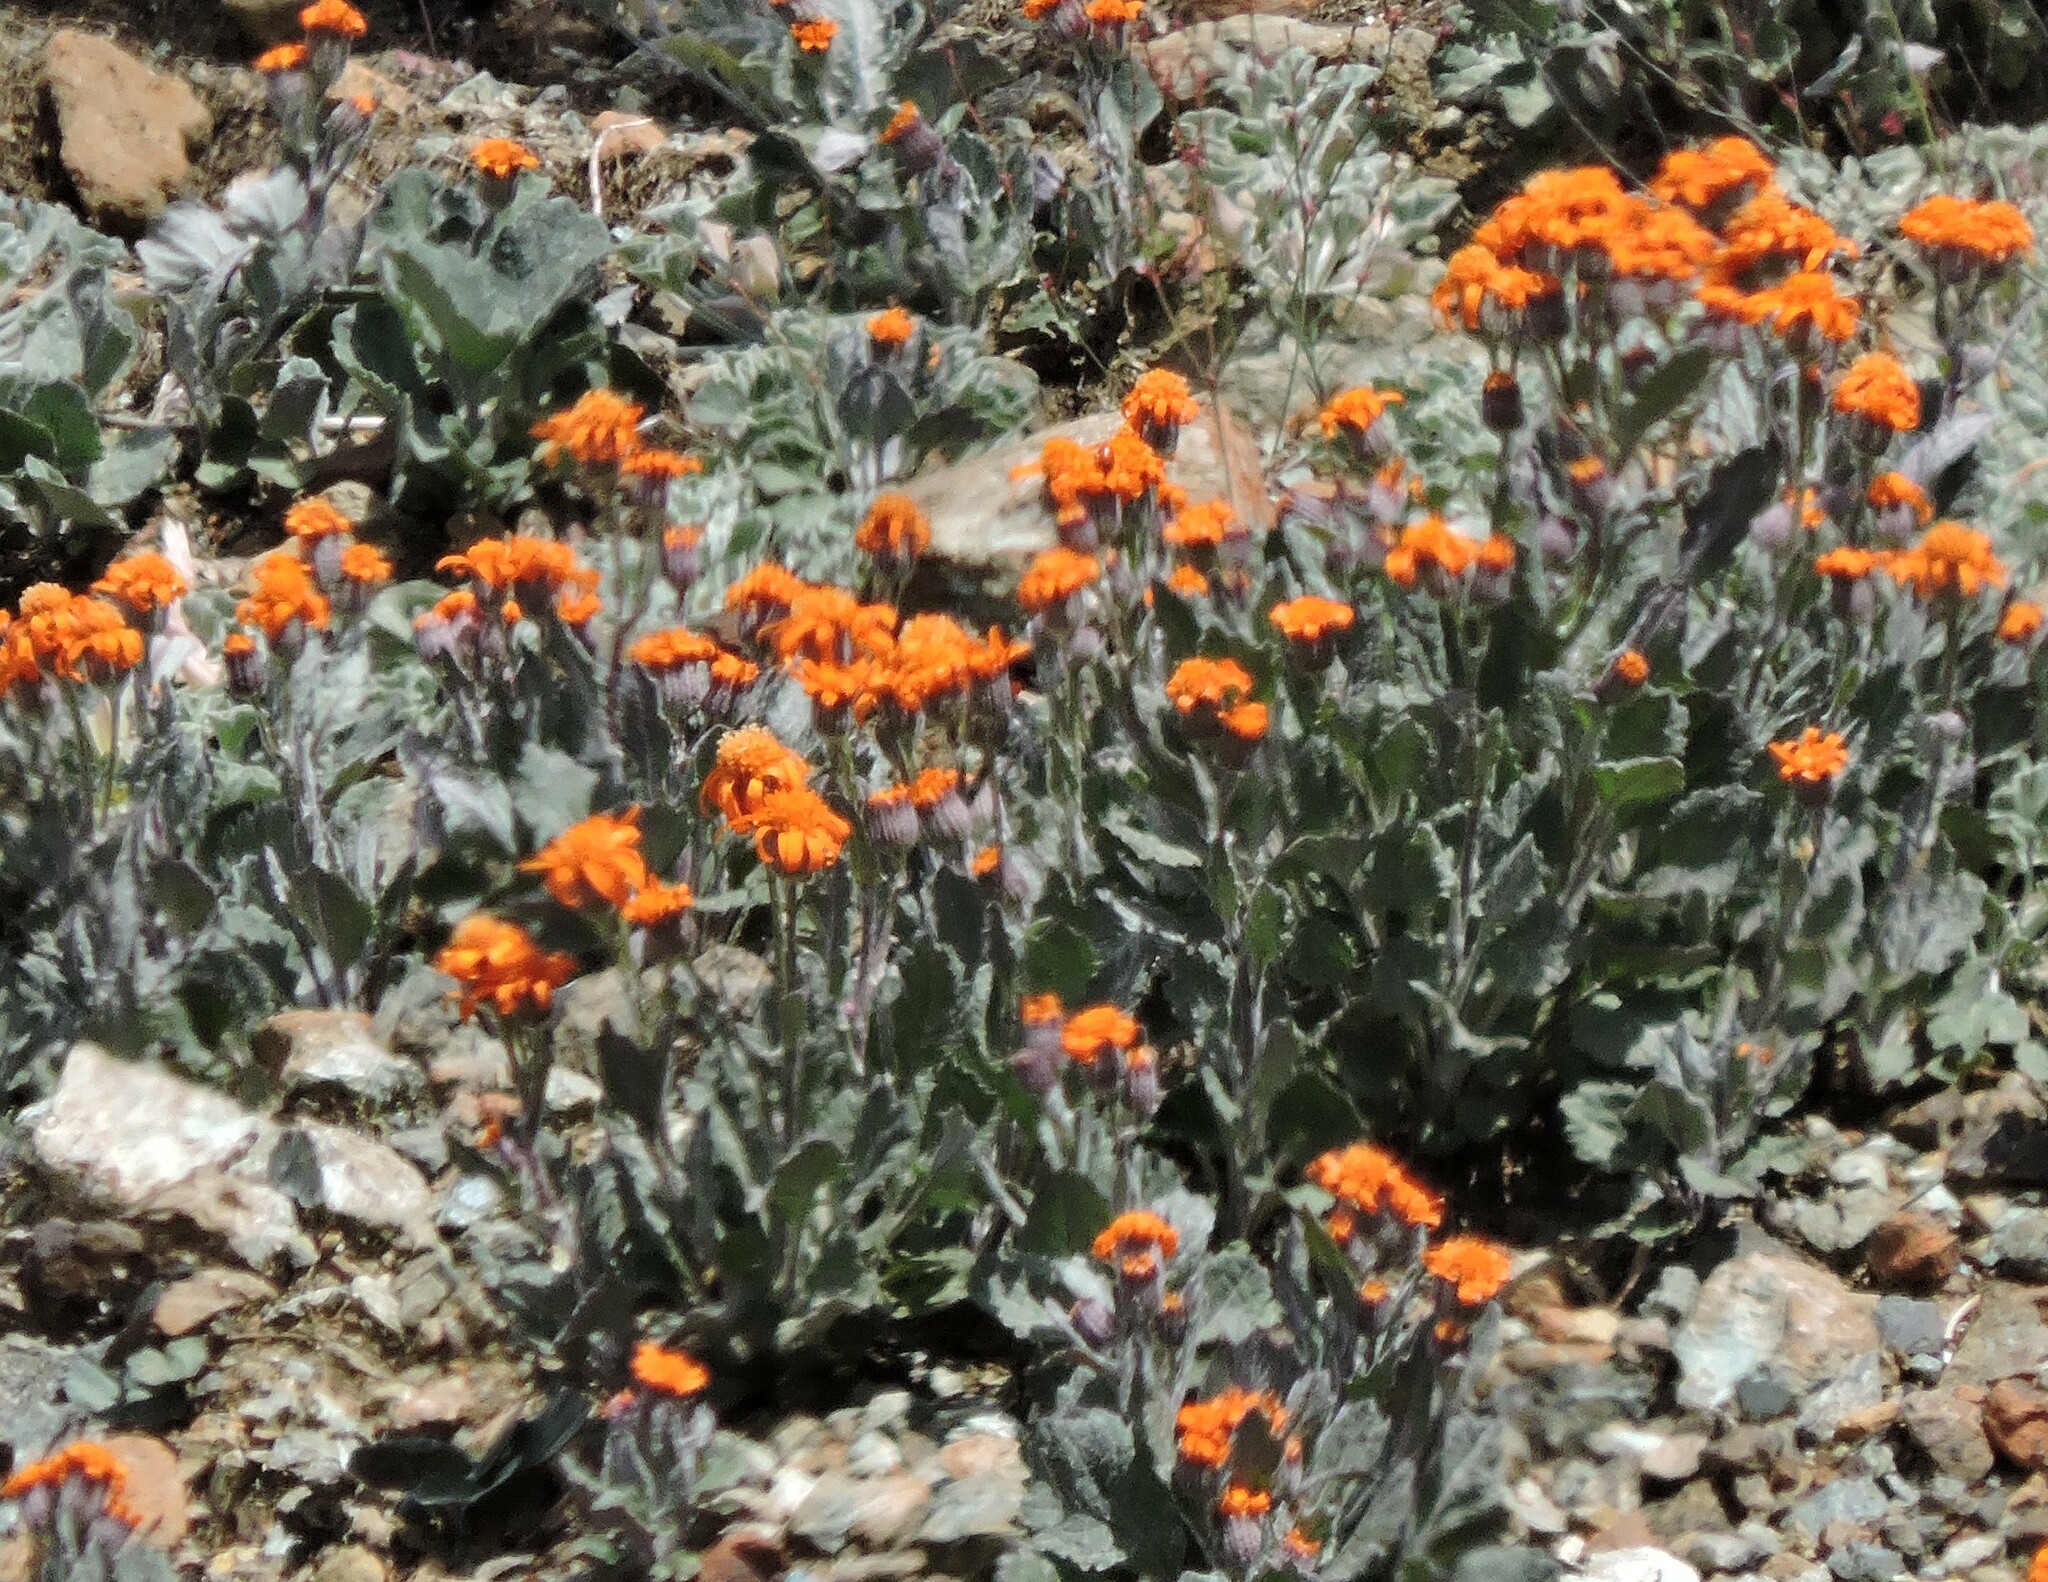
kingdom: Plantae
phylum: Tracheophyta
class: Magnoliopsida
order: Asterales
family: Asteraceae
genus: Packera
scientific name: Packera greenei
